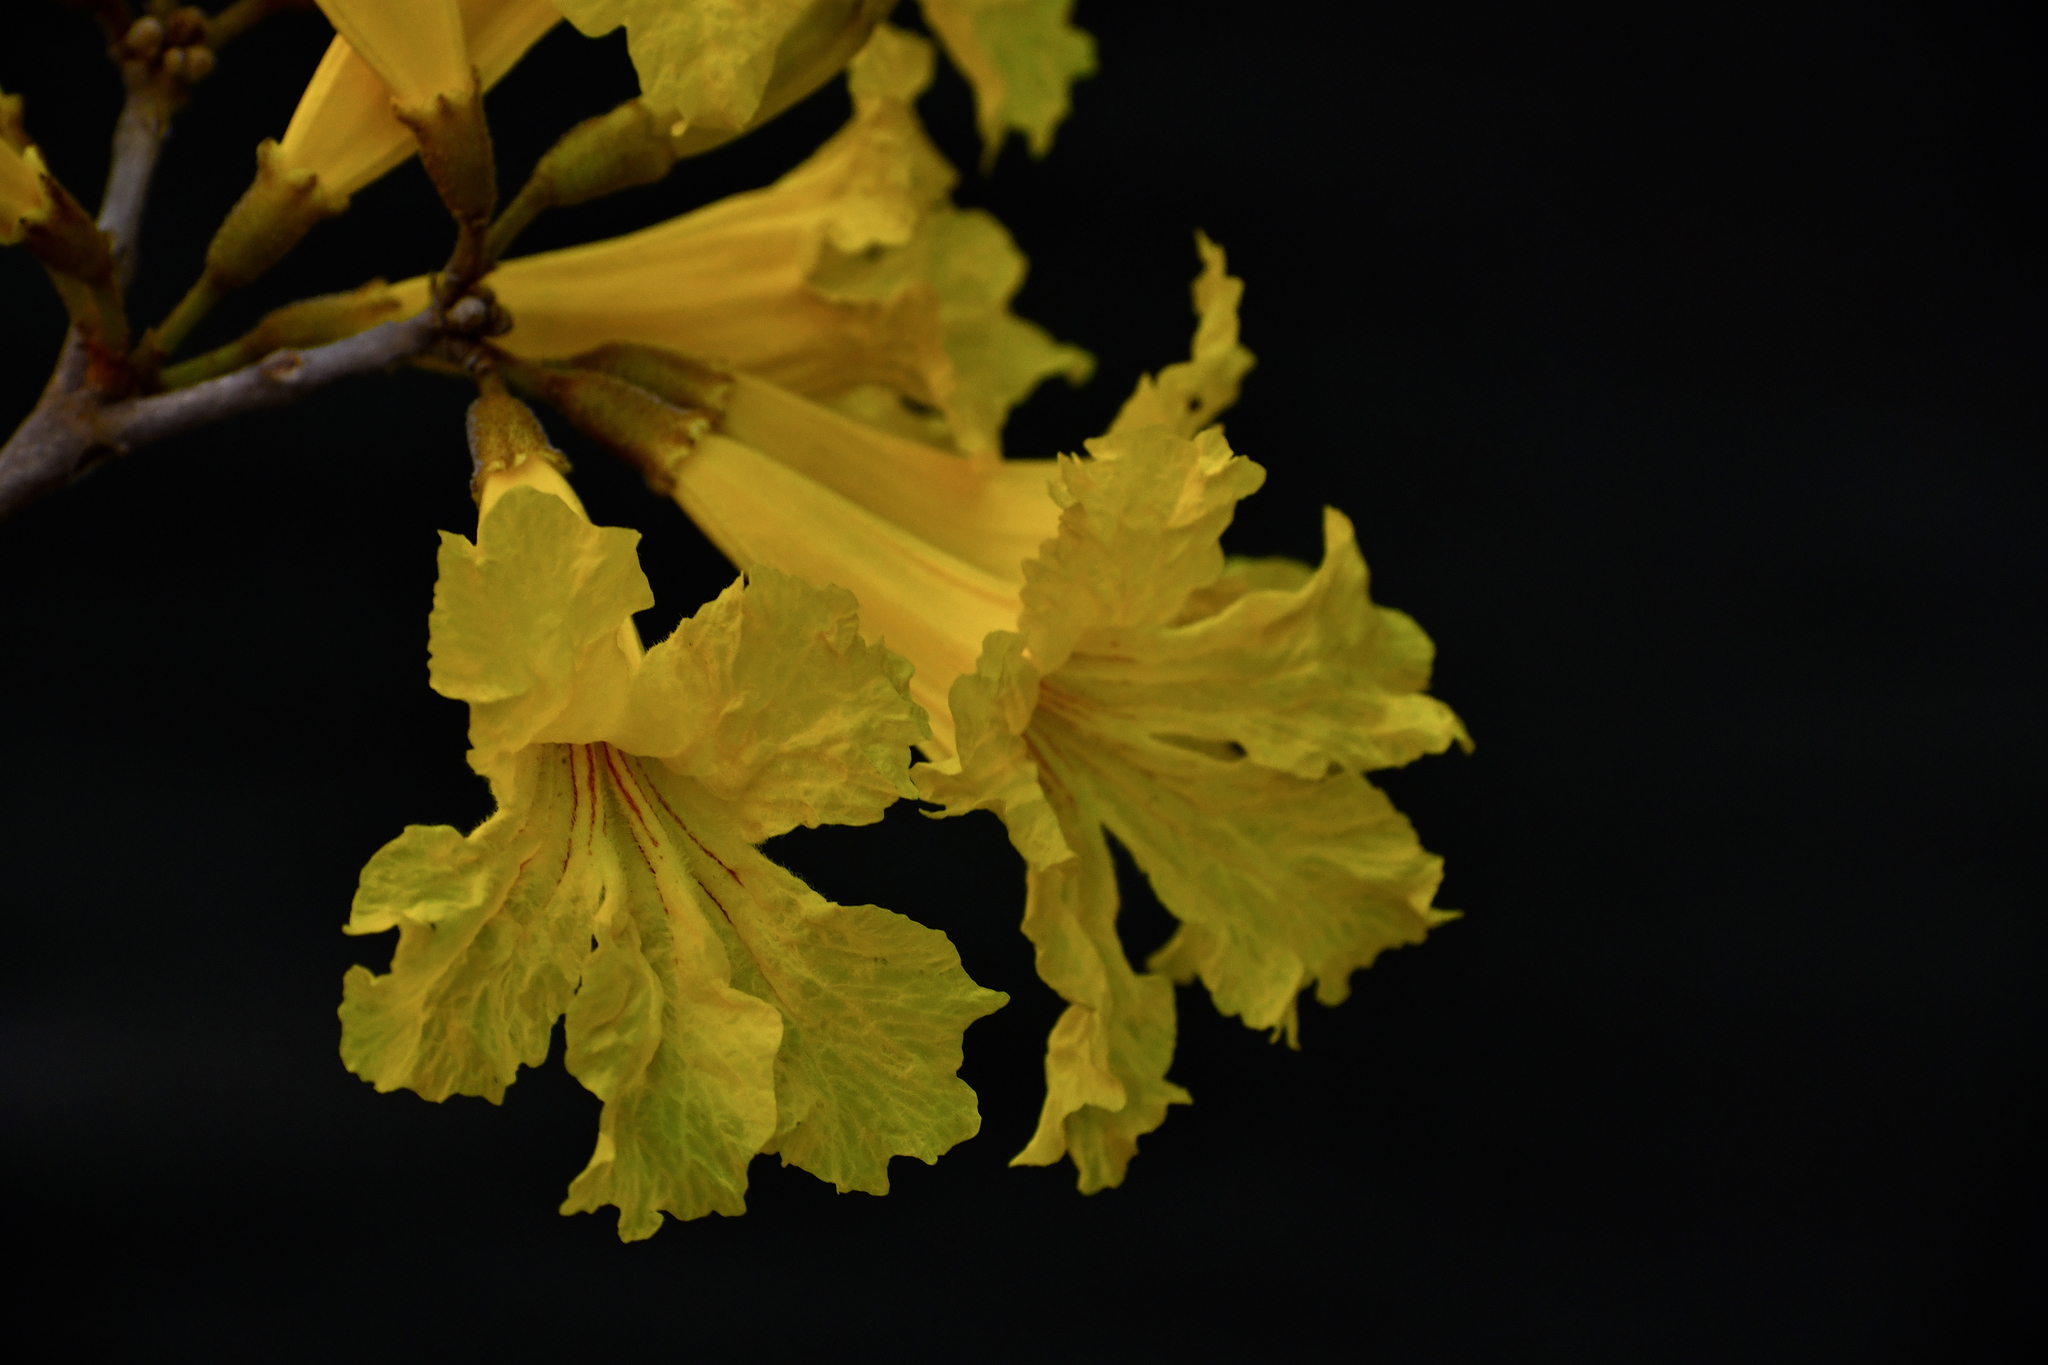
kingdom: Plantae
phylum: Tracheophyta
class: Magnoliopsida
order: Lamiales
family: Bignoniaceae
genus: Handroanthus
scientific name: Handroanthus chrysanthus
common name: Trumpet trees
